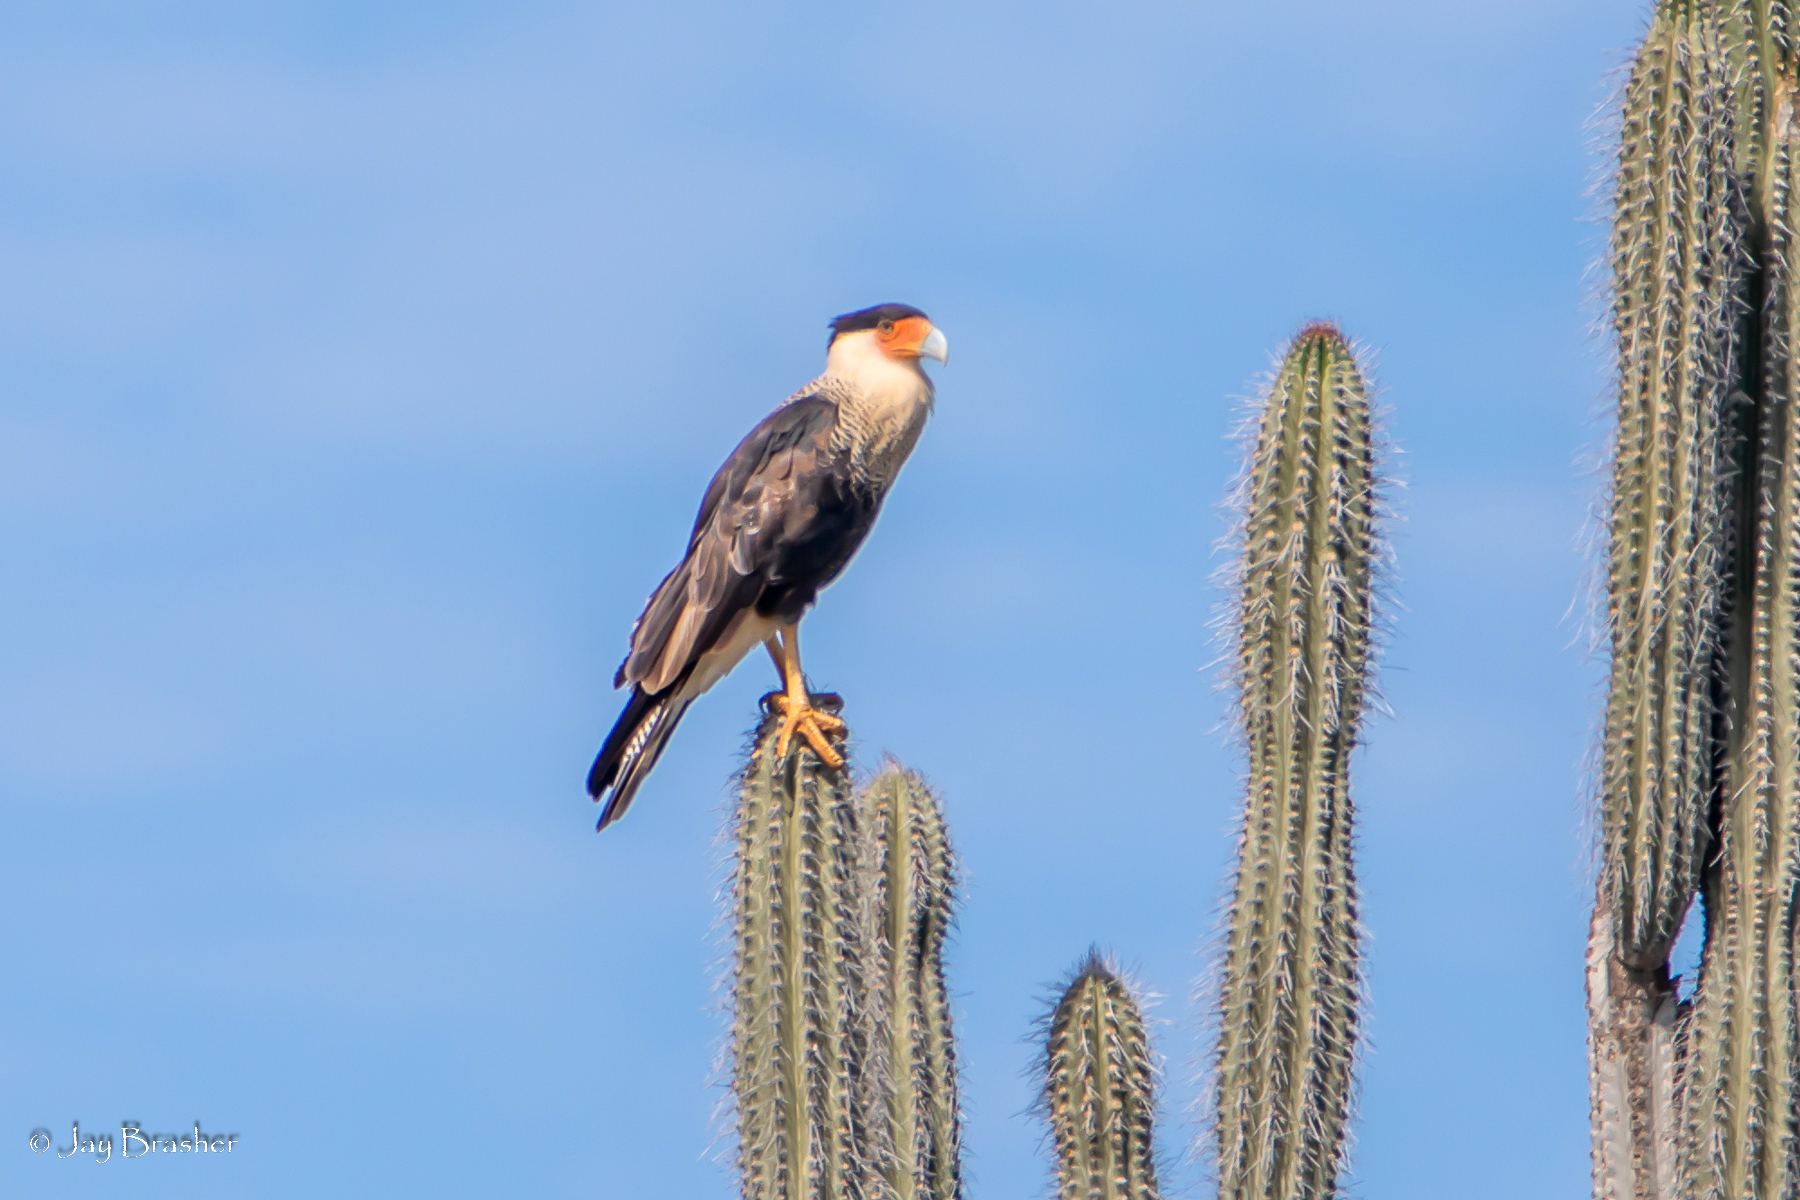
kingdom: Animalia
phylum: Chordata
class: Aves
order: Falconiformes
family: Falconidae
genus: Caracara
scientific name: Caracara plancus
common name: Southern caracara
